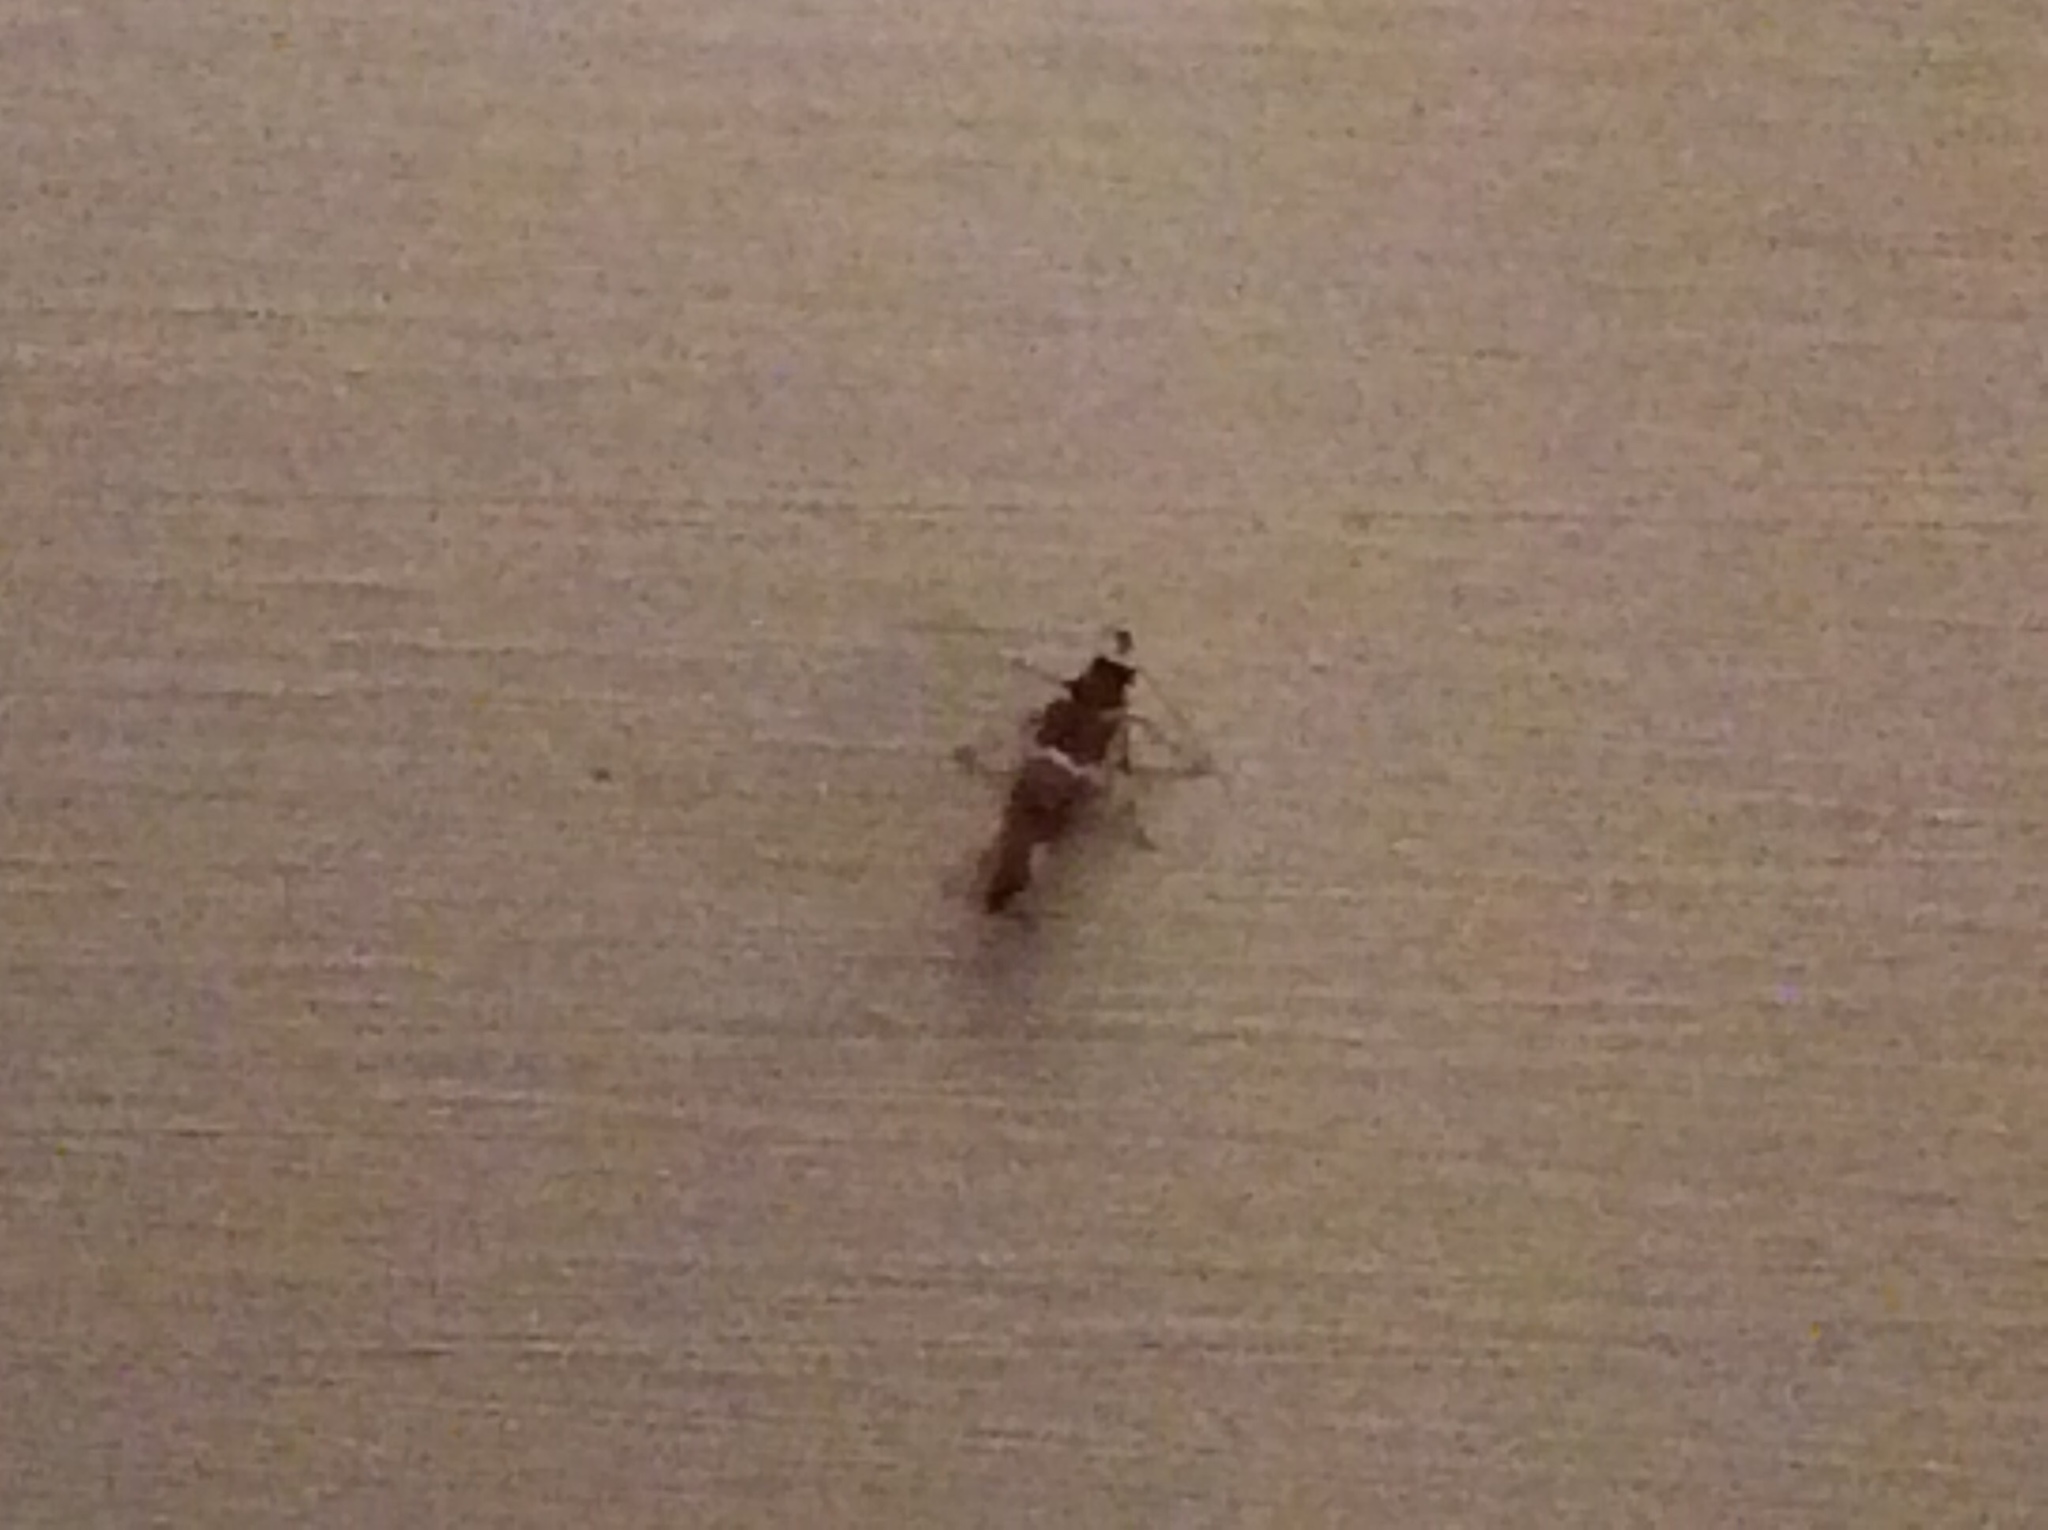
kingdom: Animalia
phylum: Arthropoda
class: Insecta
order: Lepidoptera
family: Oecophoridae
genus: Promalactis
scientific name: Promalactis suzukiella
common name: Moth
